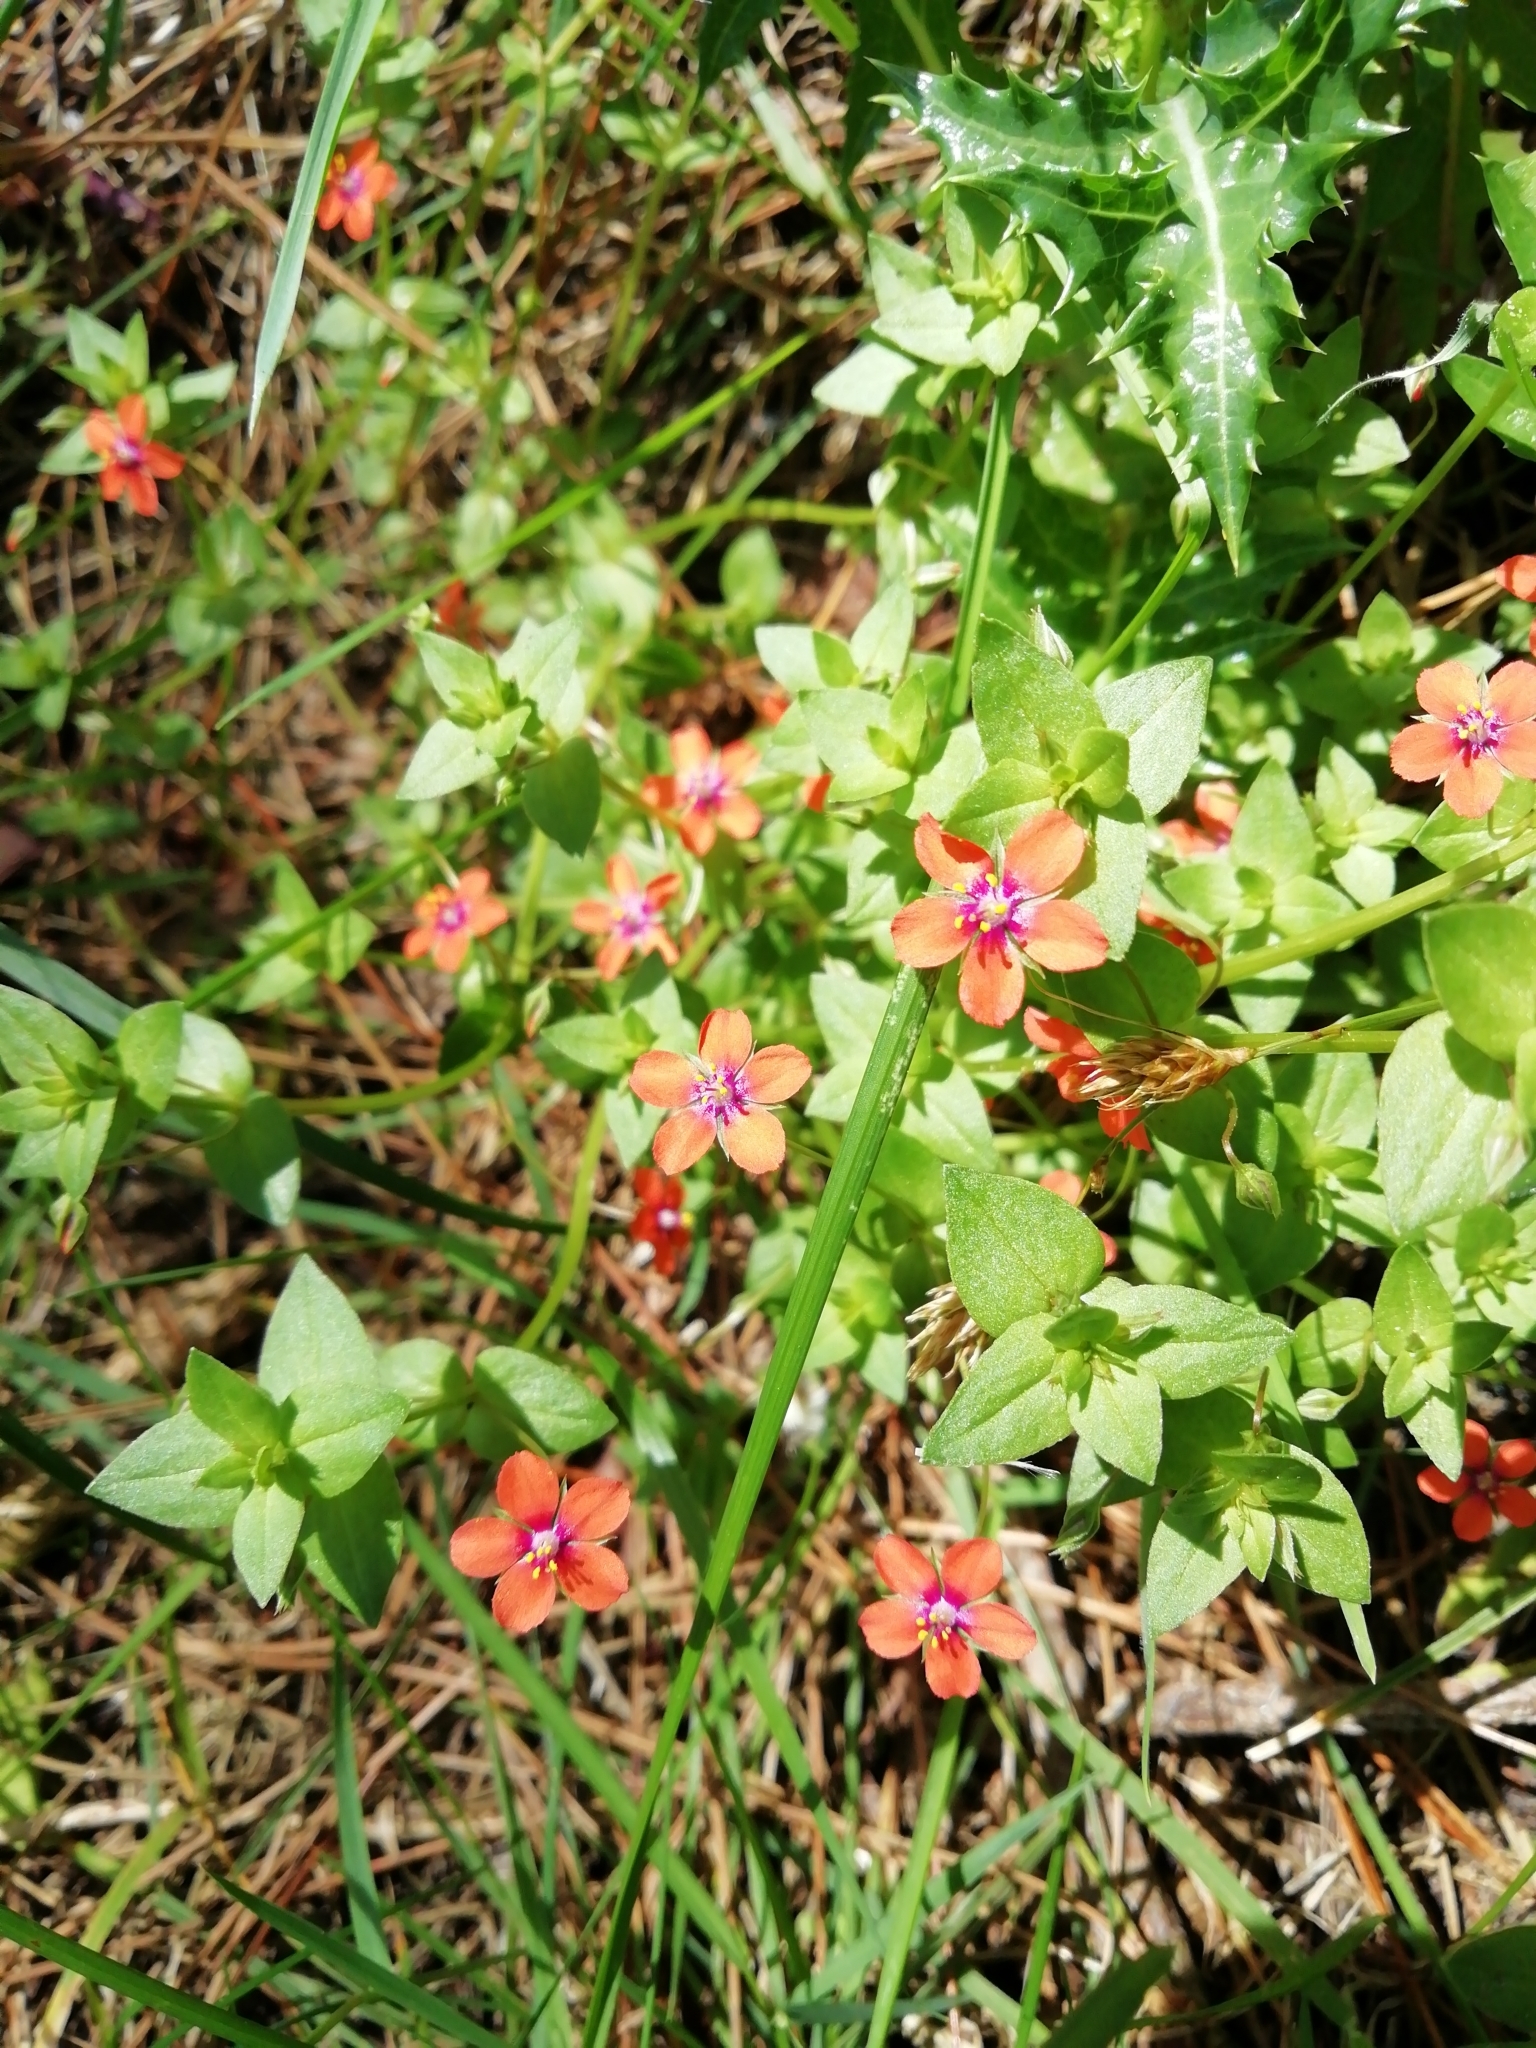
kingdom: Plantae
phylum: Tracheophyta
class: Magnoliopsida
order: Ericales
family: Primulaceae
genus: Lysimachia
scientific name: Lysimachia arvensis
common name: Scarlet pimpernel
